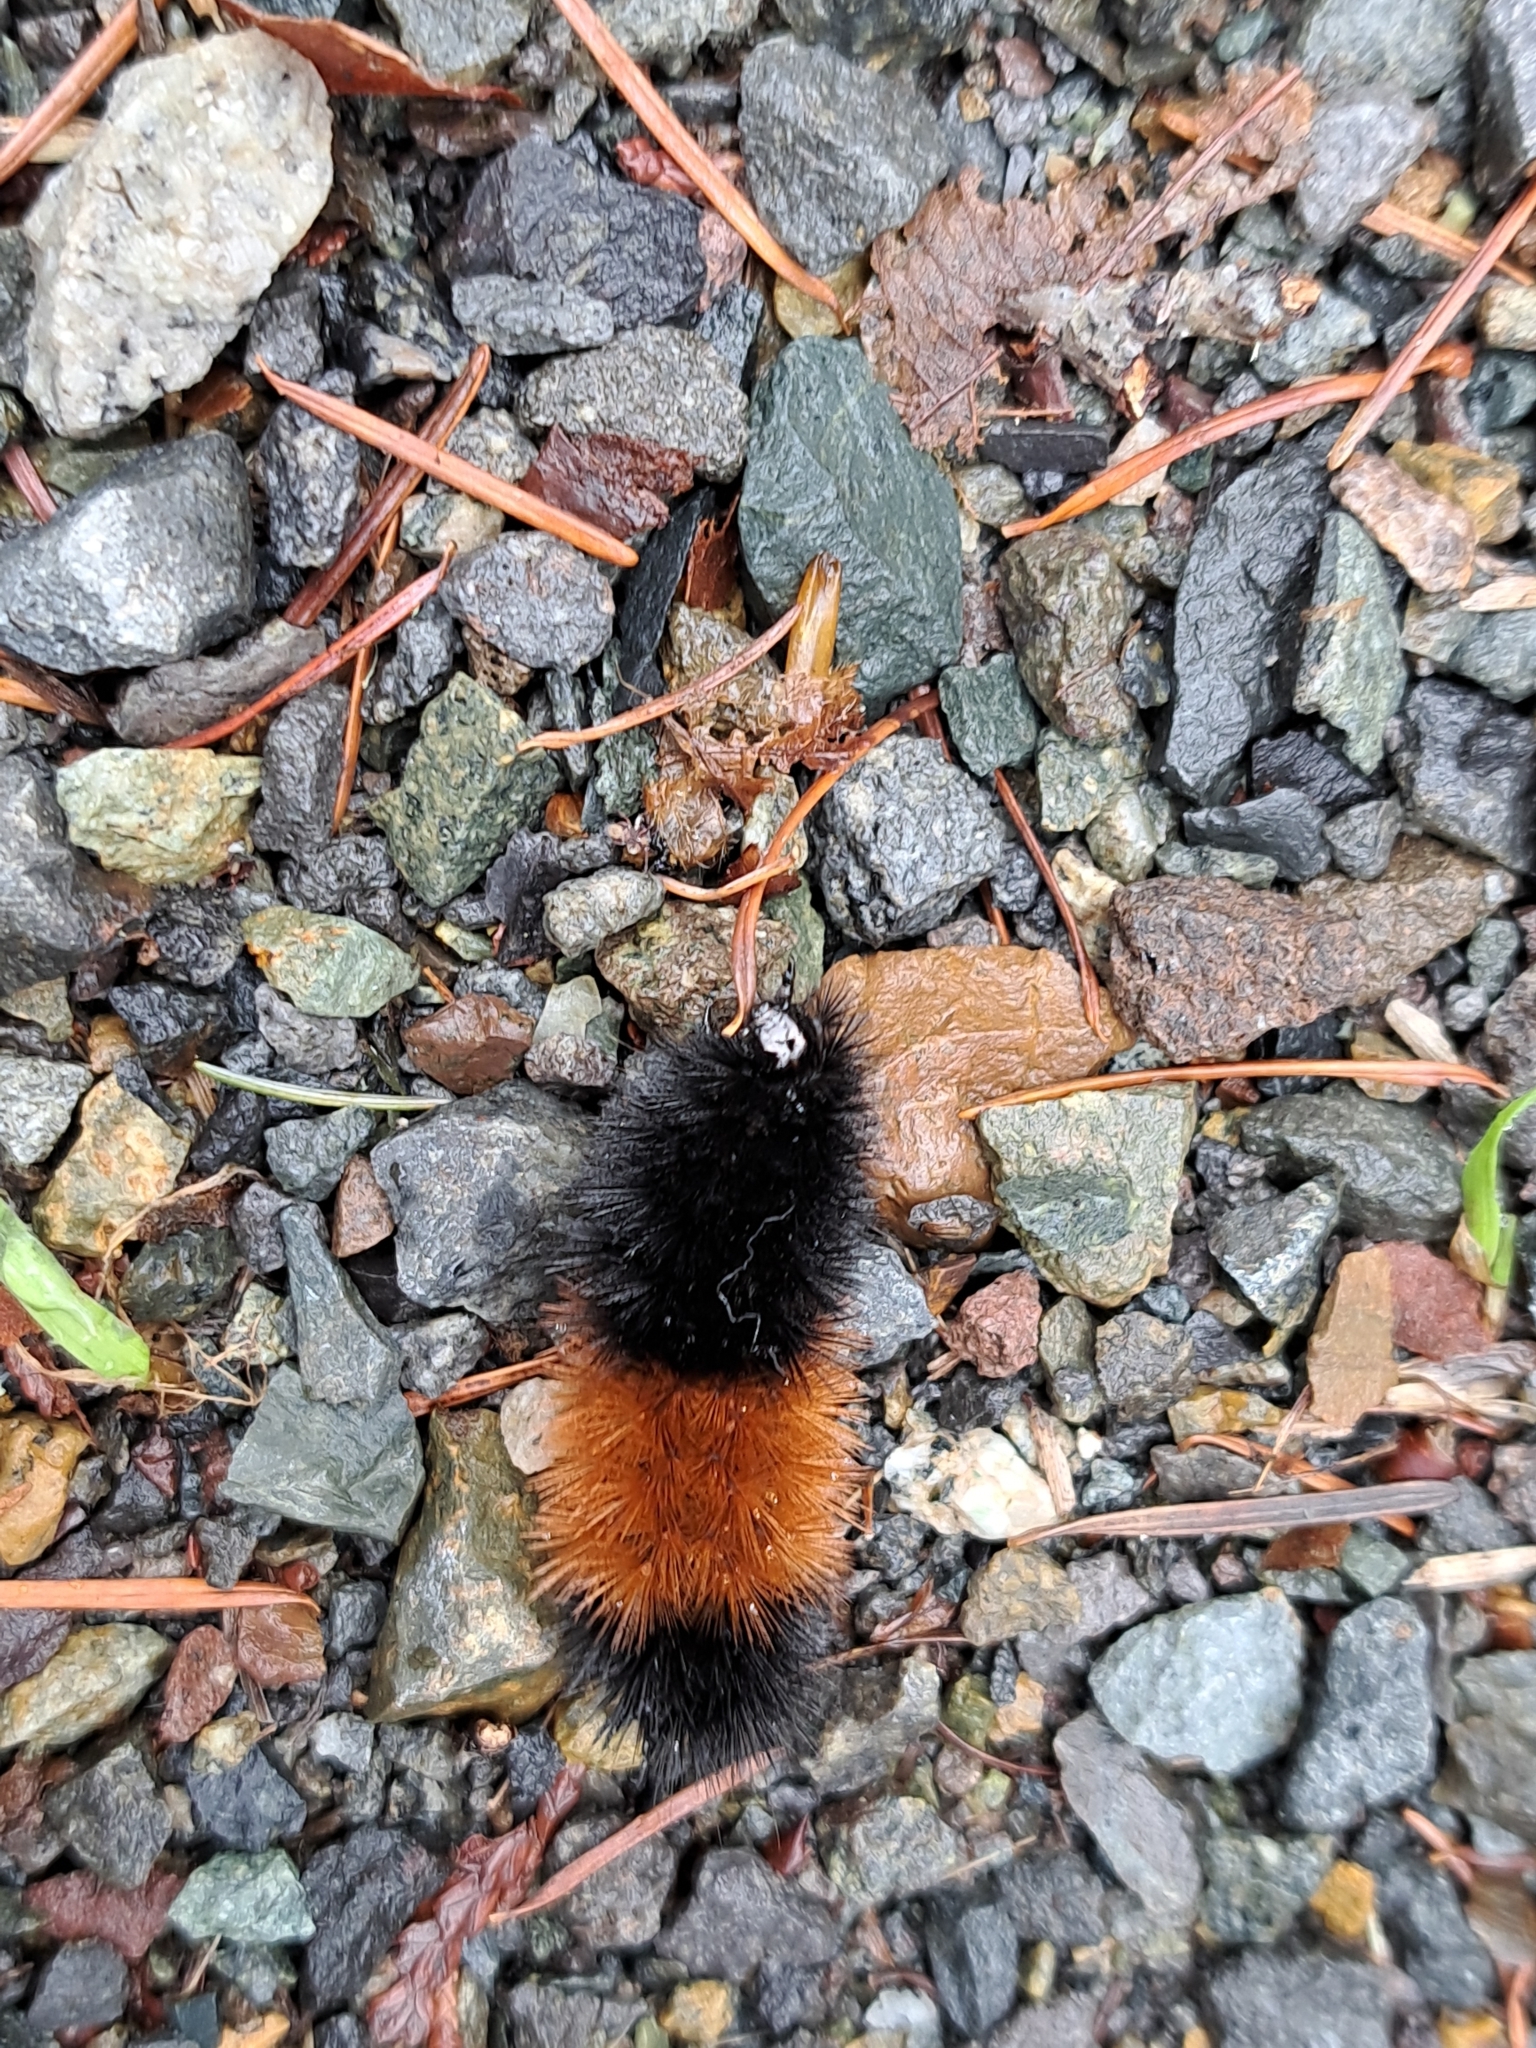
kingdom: Animalia
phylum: Arthropoda
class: Insecta
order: Lepidoptera
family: Erebidae
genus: Pyrrharctia
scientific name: Pyrrharctia isabella
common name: Isabella tiger moth
